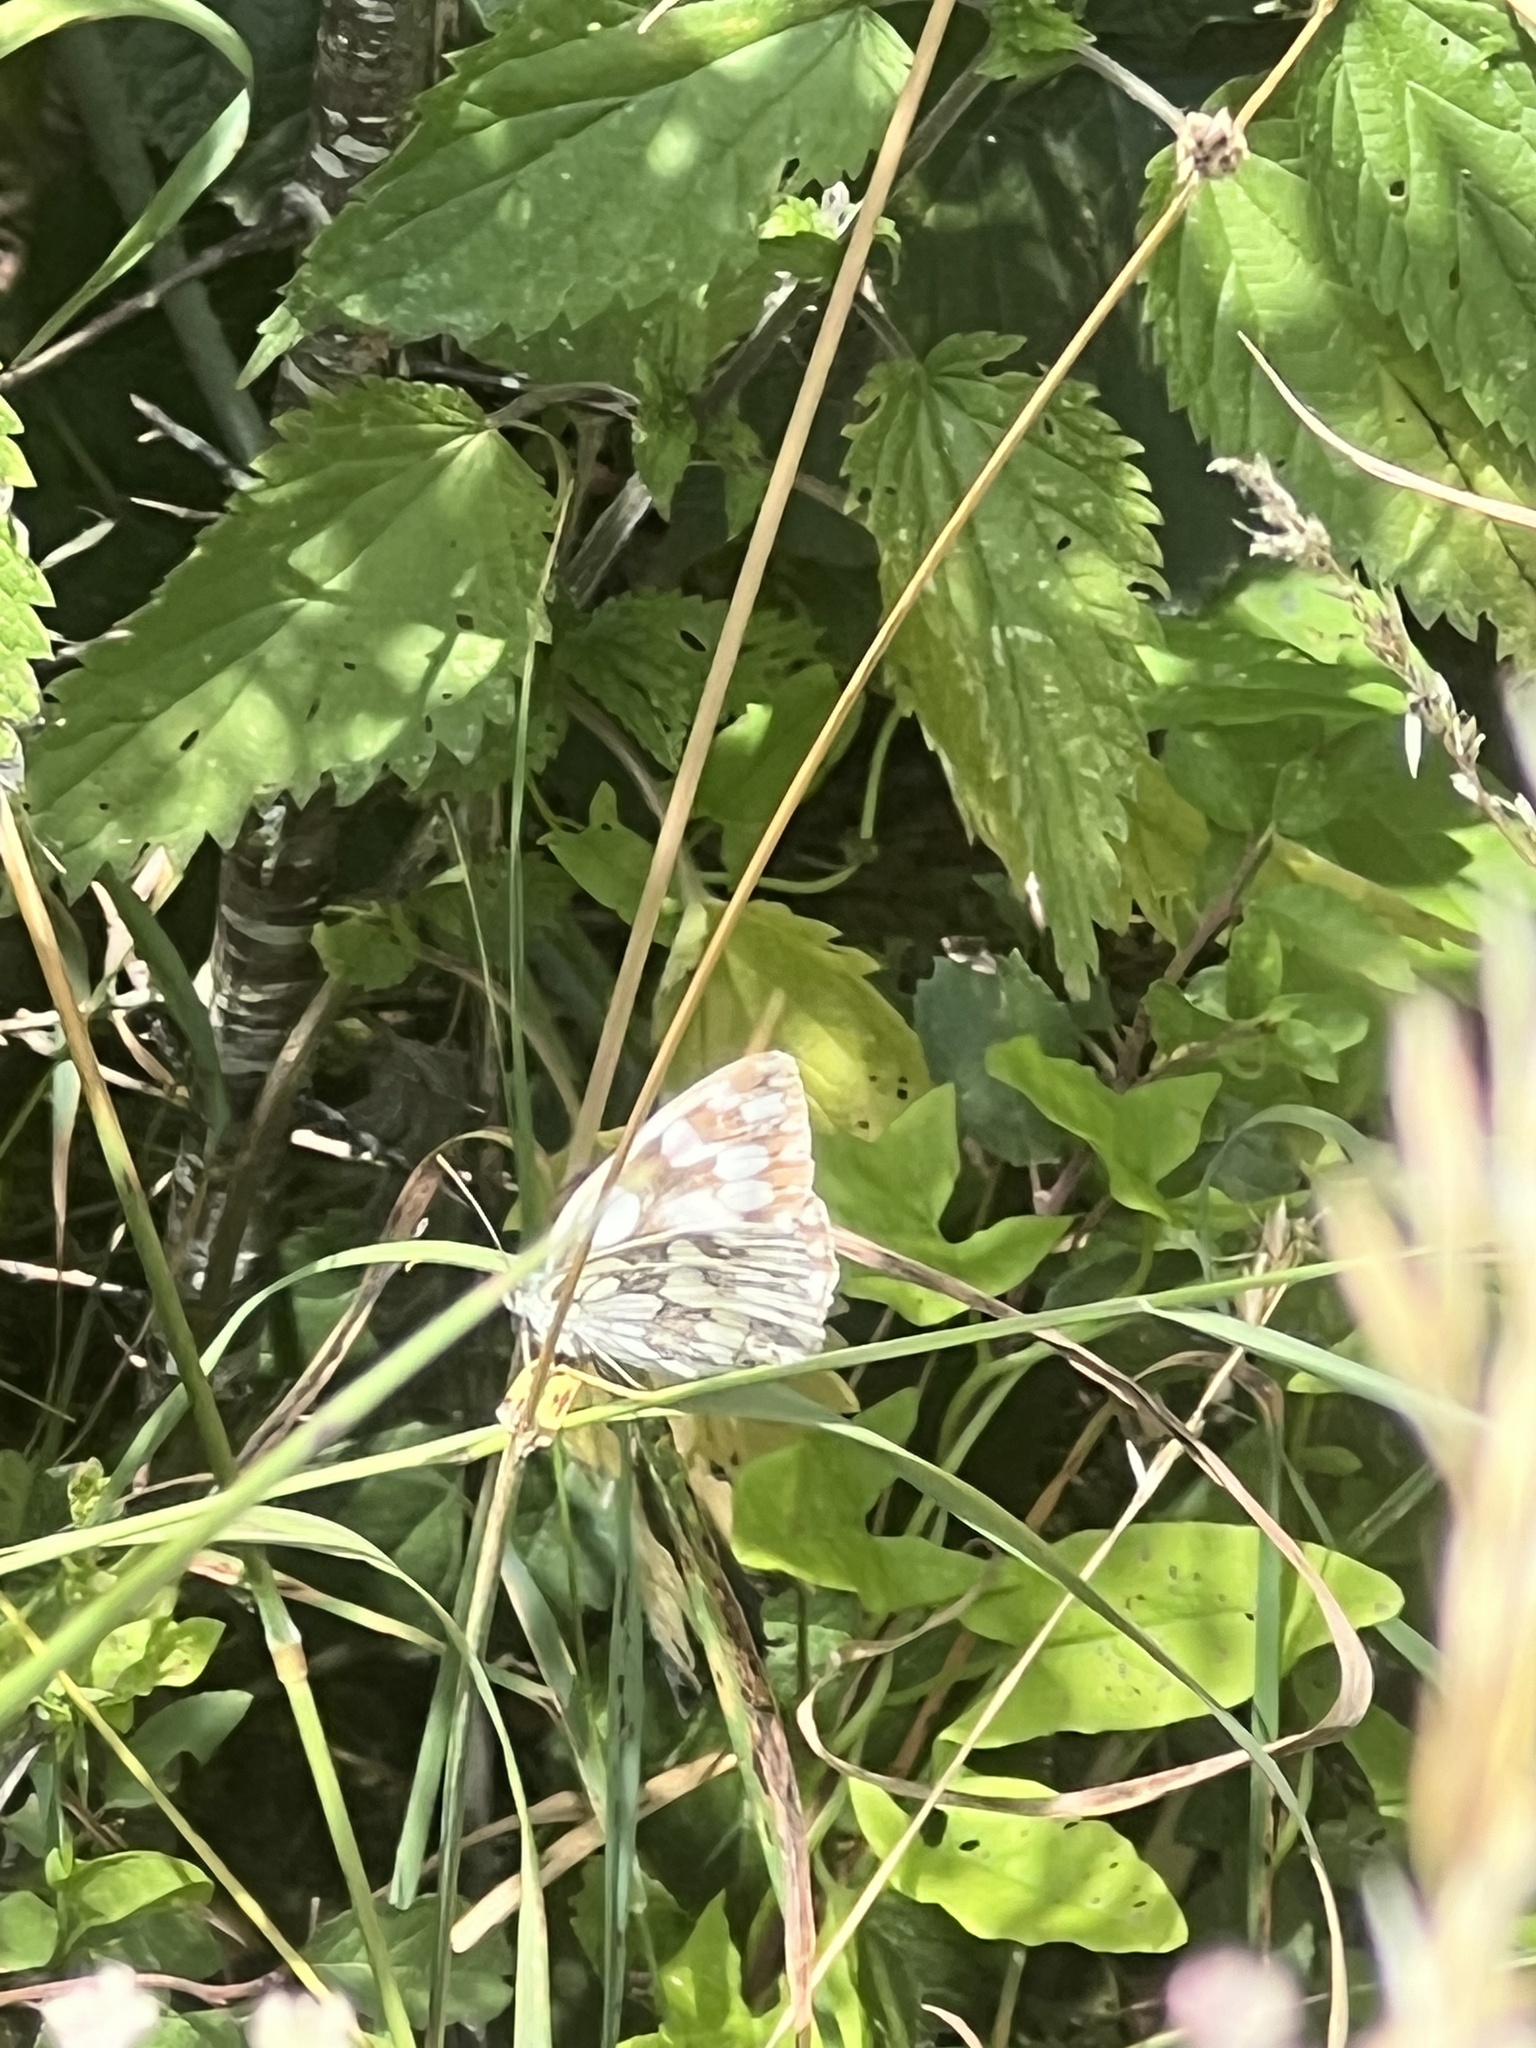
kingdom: Animalia
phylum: Arthropoda
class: Insecta
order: Lepidoptera
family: Nymphalidae
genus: Melanargia
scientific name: Melanargia galathea
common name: Marbled white
